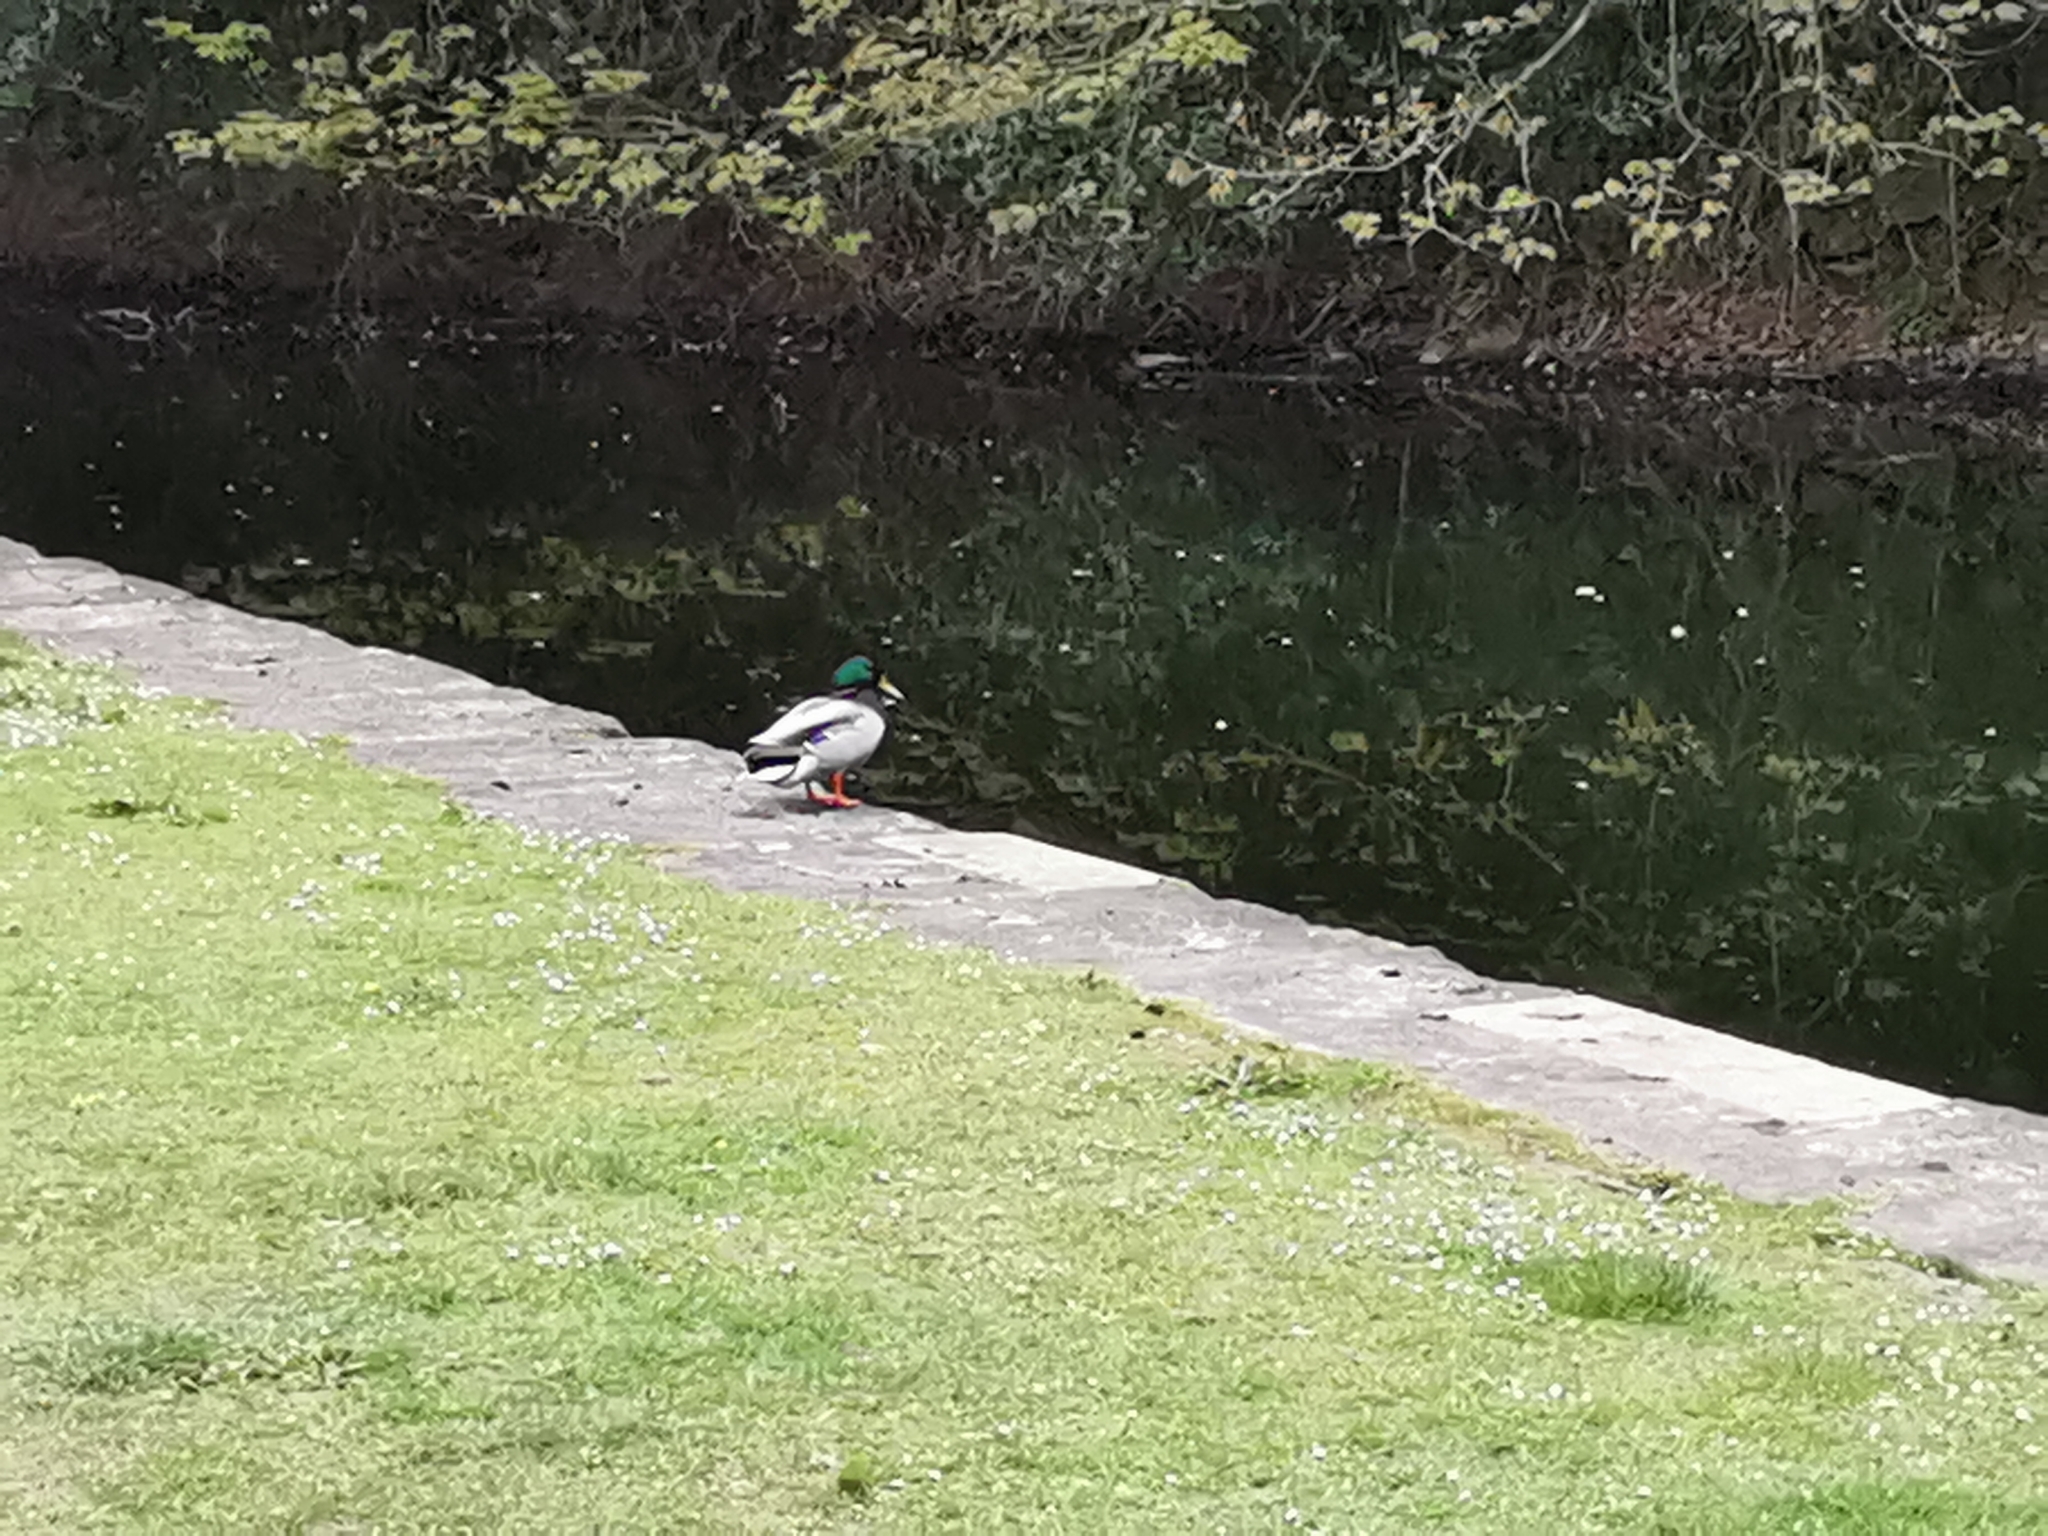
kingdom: Animalia
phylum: Chordata
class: Aves
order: Anseriformes
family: Anatidae
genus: Anas
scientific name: Anas platyrhynchos
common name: Mallard
